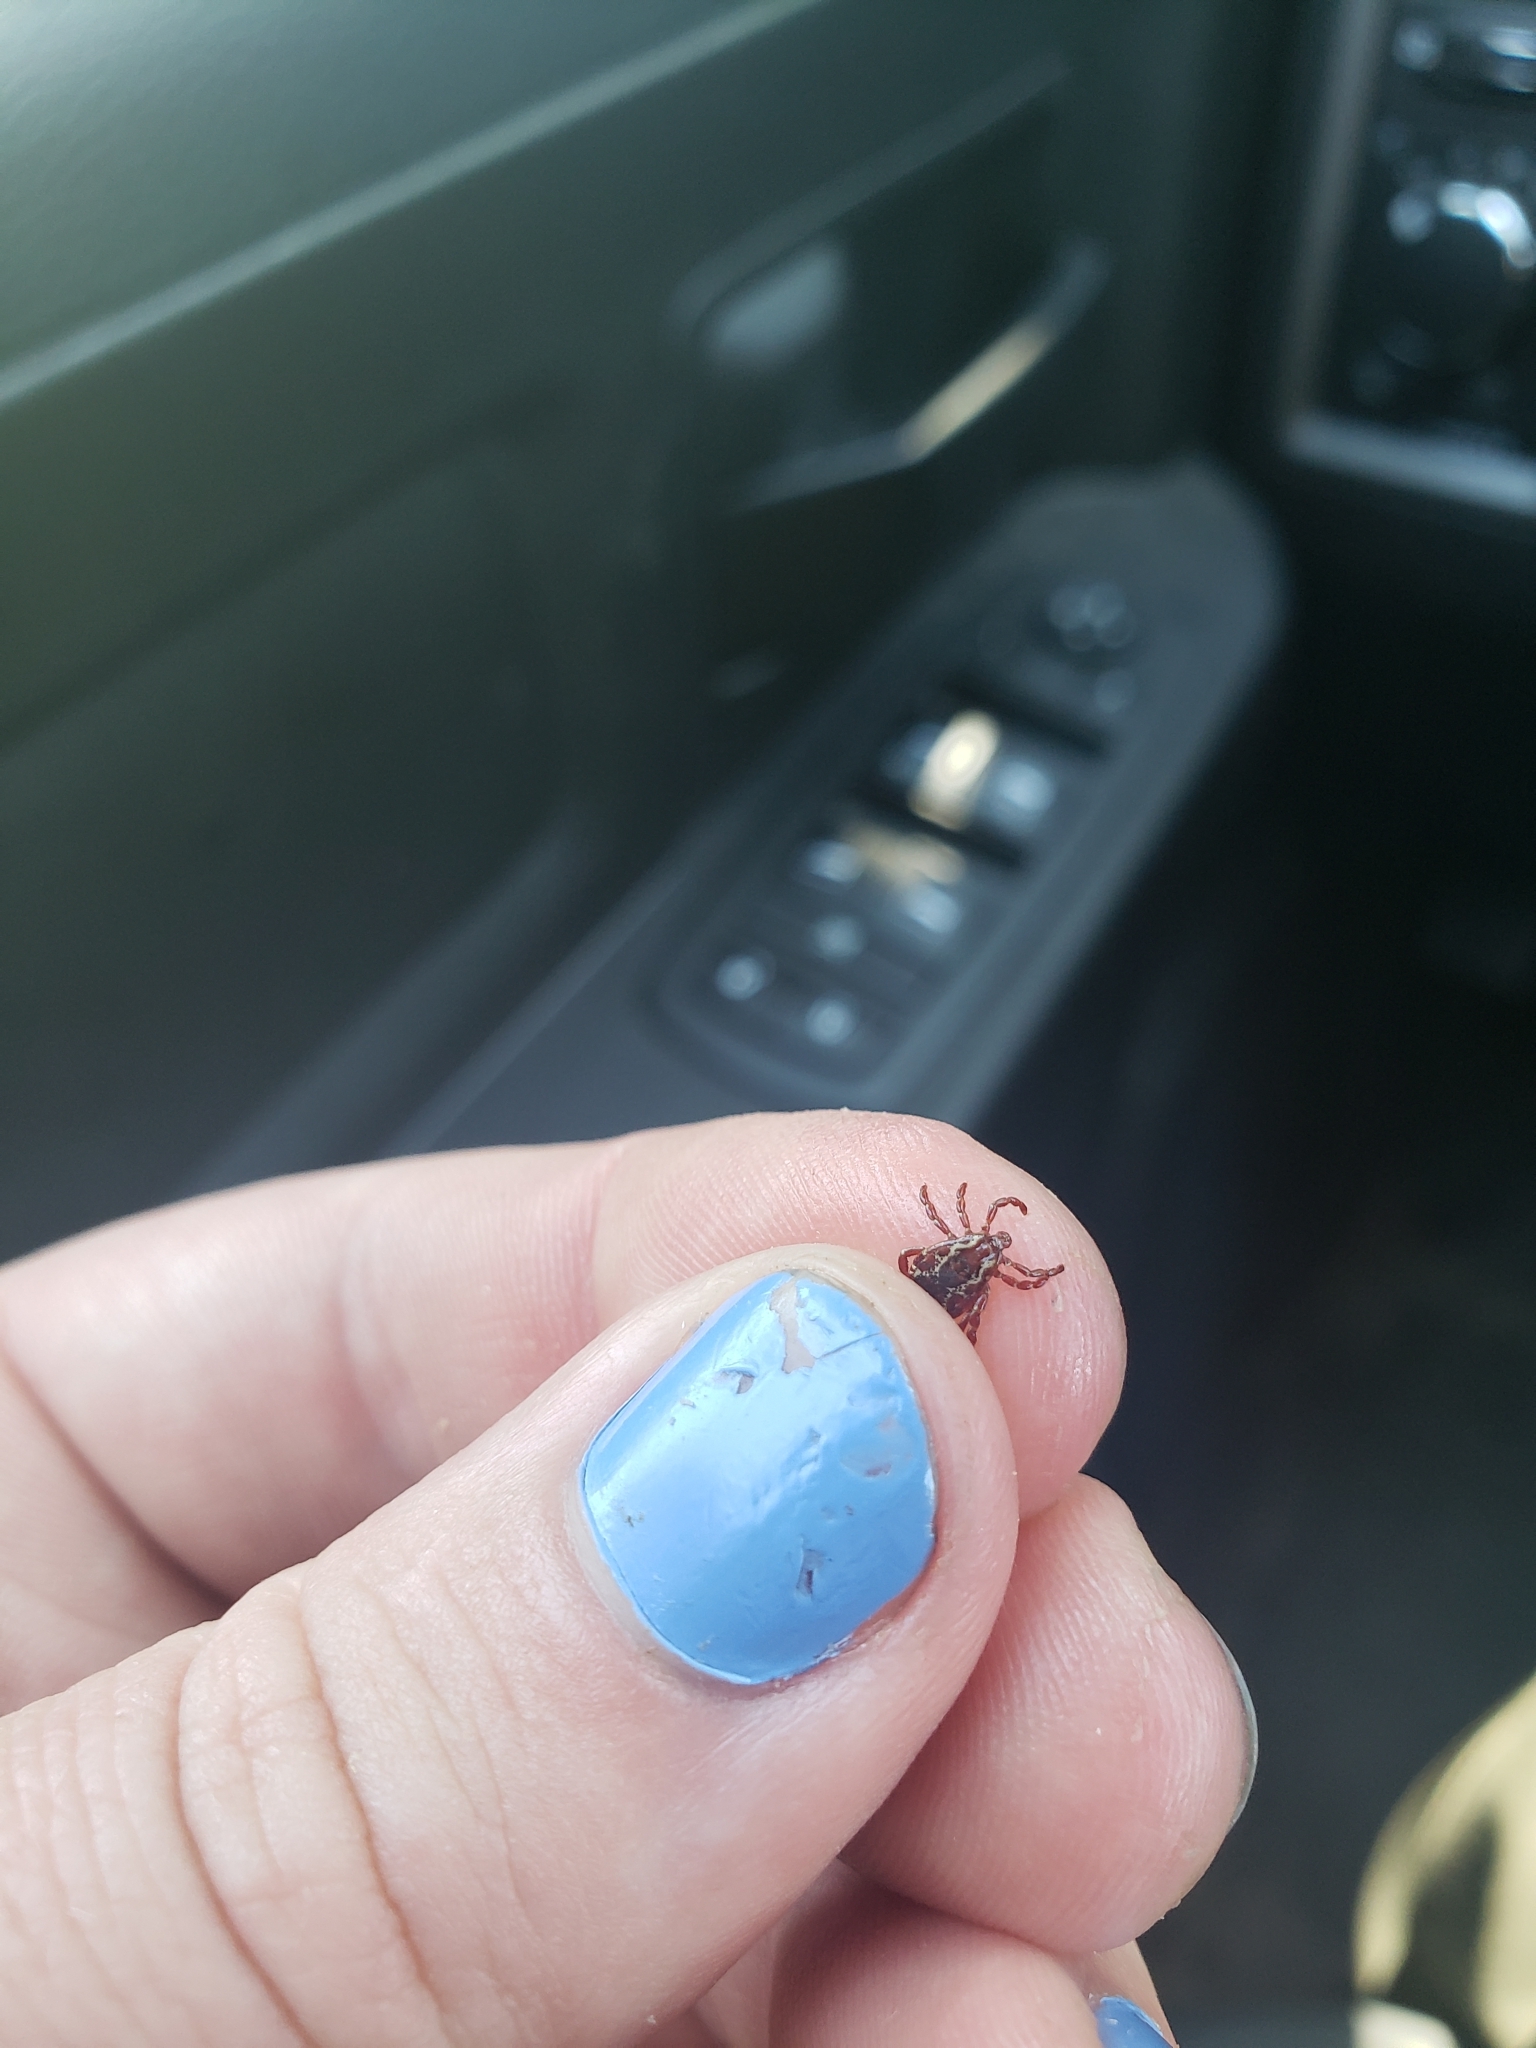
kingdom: Animalia
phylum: Arthropoda
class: Arachnida
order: Ixodida
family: Ixodidae
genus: Dermacentor
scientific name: Dermacentor variabilis
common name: American dog tick
